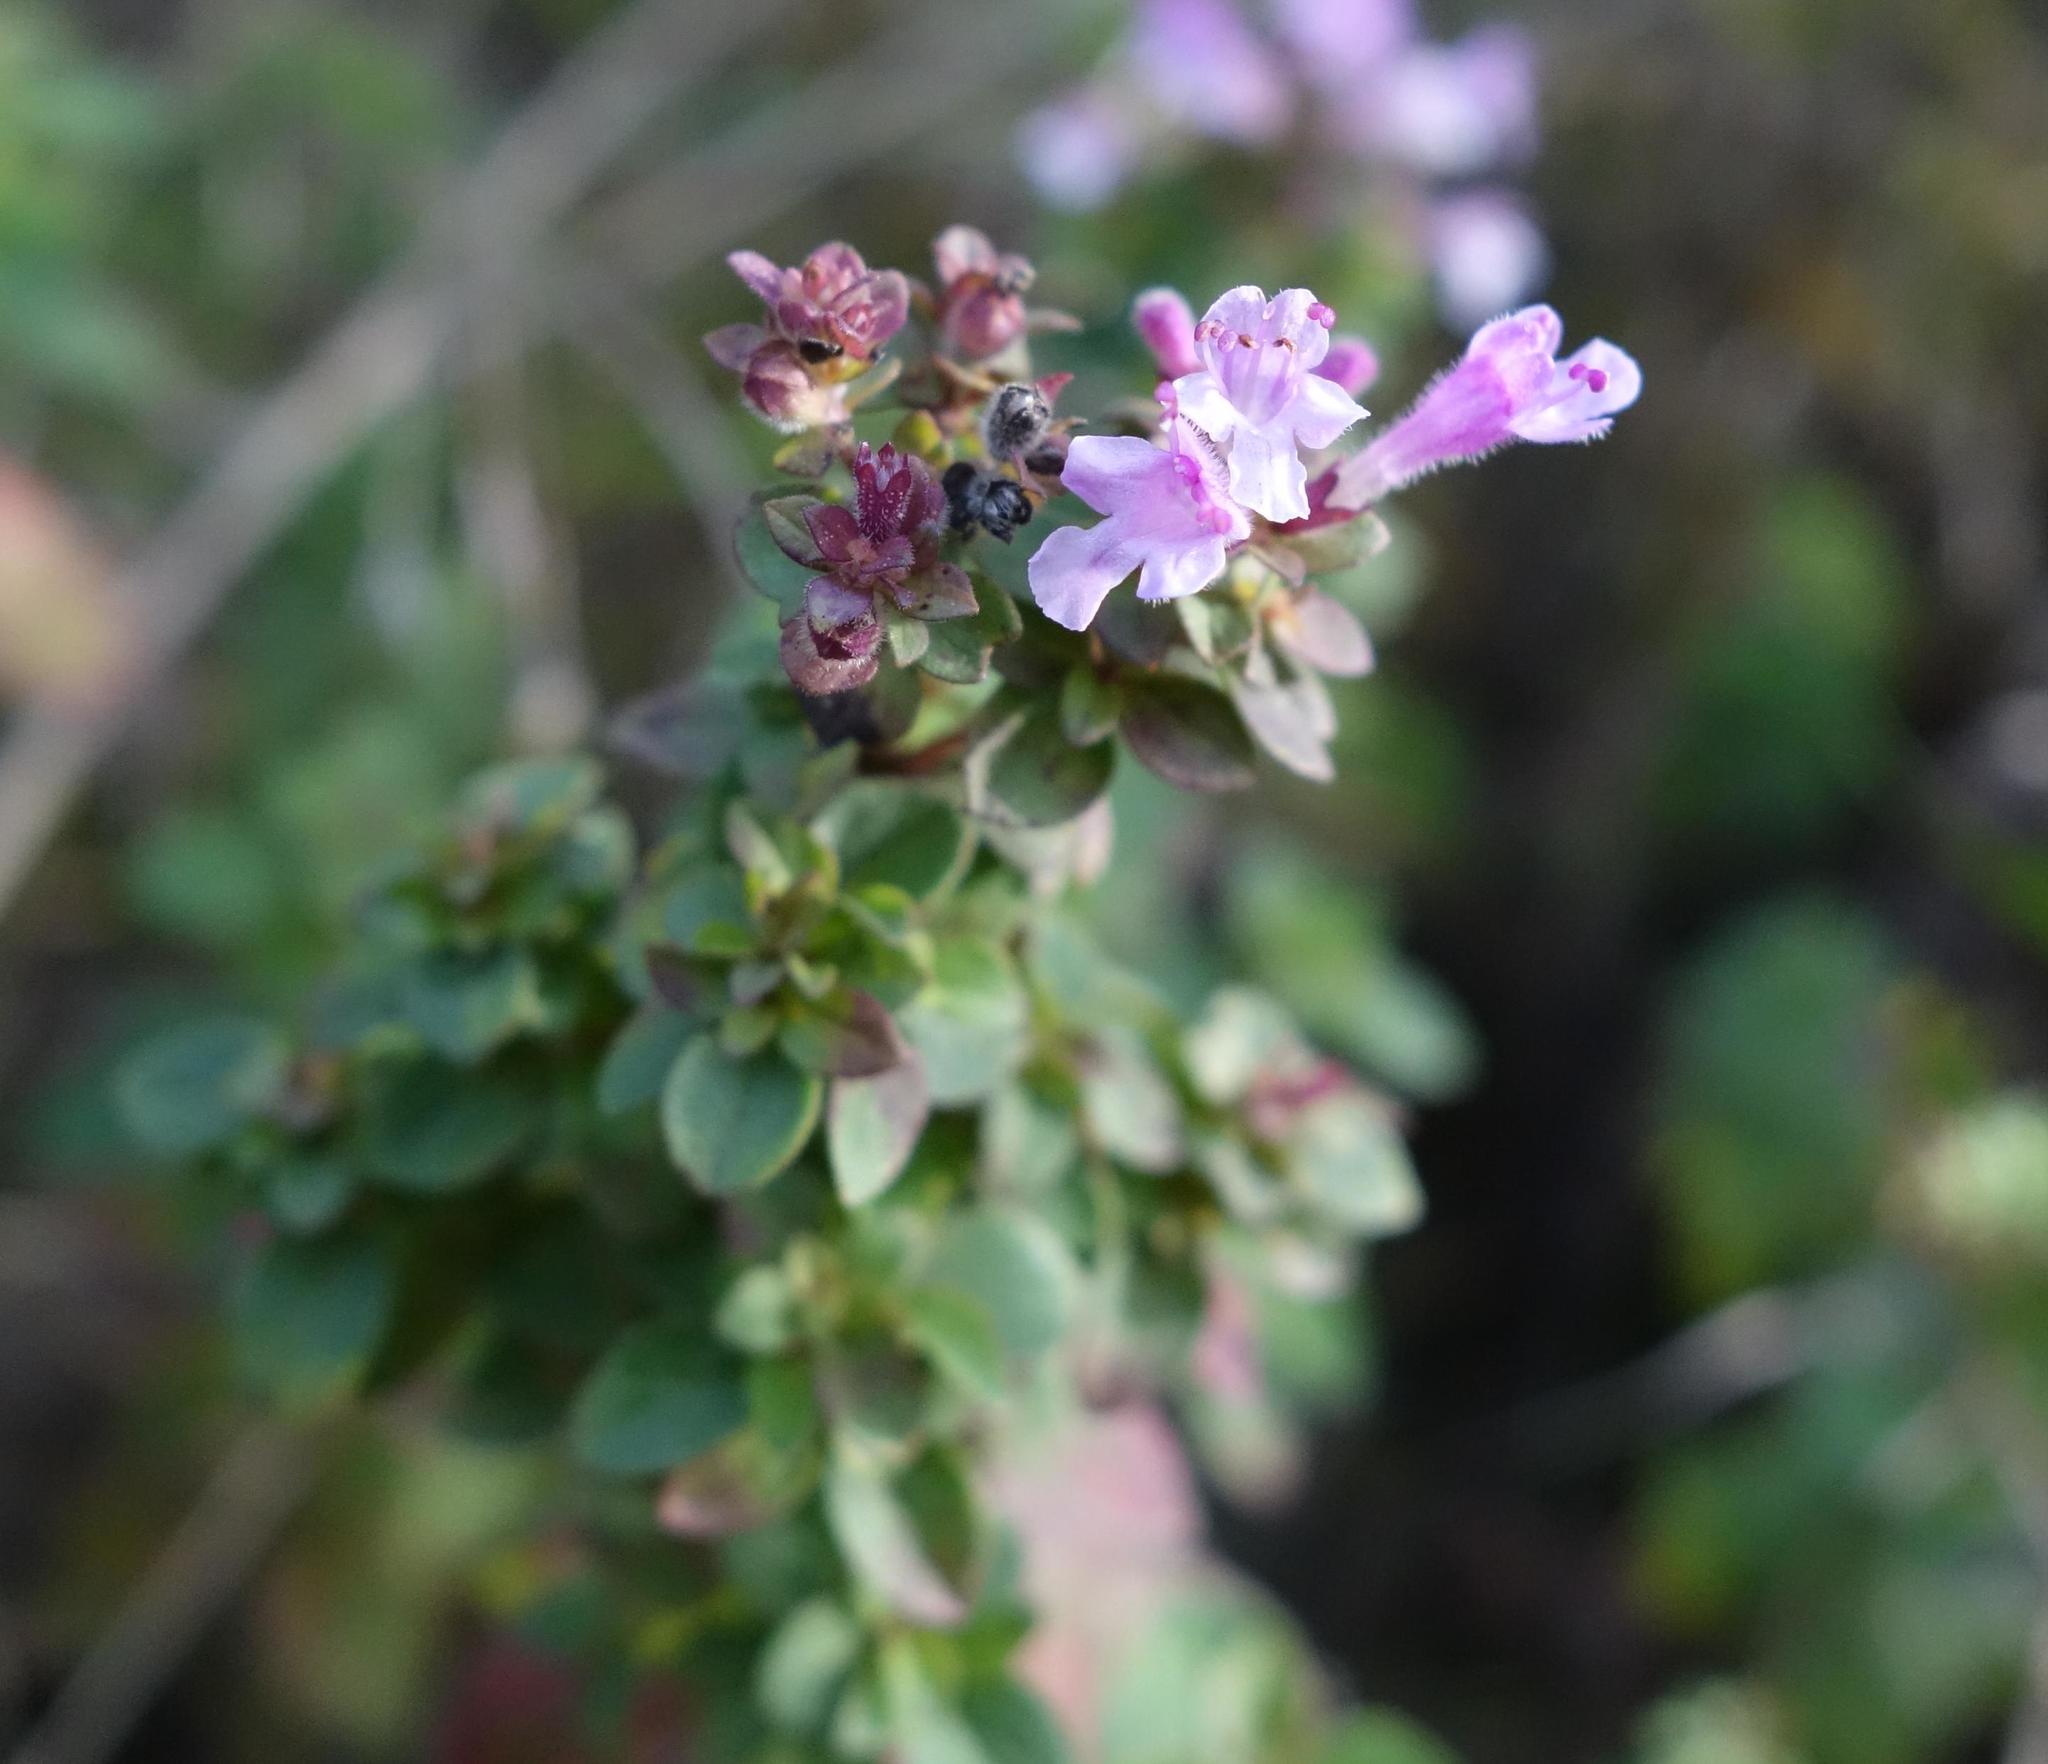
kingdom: Plantae
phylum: Tracheophyta
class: Magnoliopsida
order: Lamiales
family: Lamiaceae
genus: Origanum
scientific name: Origanum vulgare
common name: Wild marjoram
